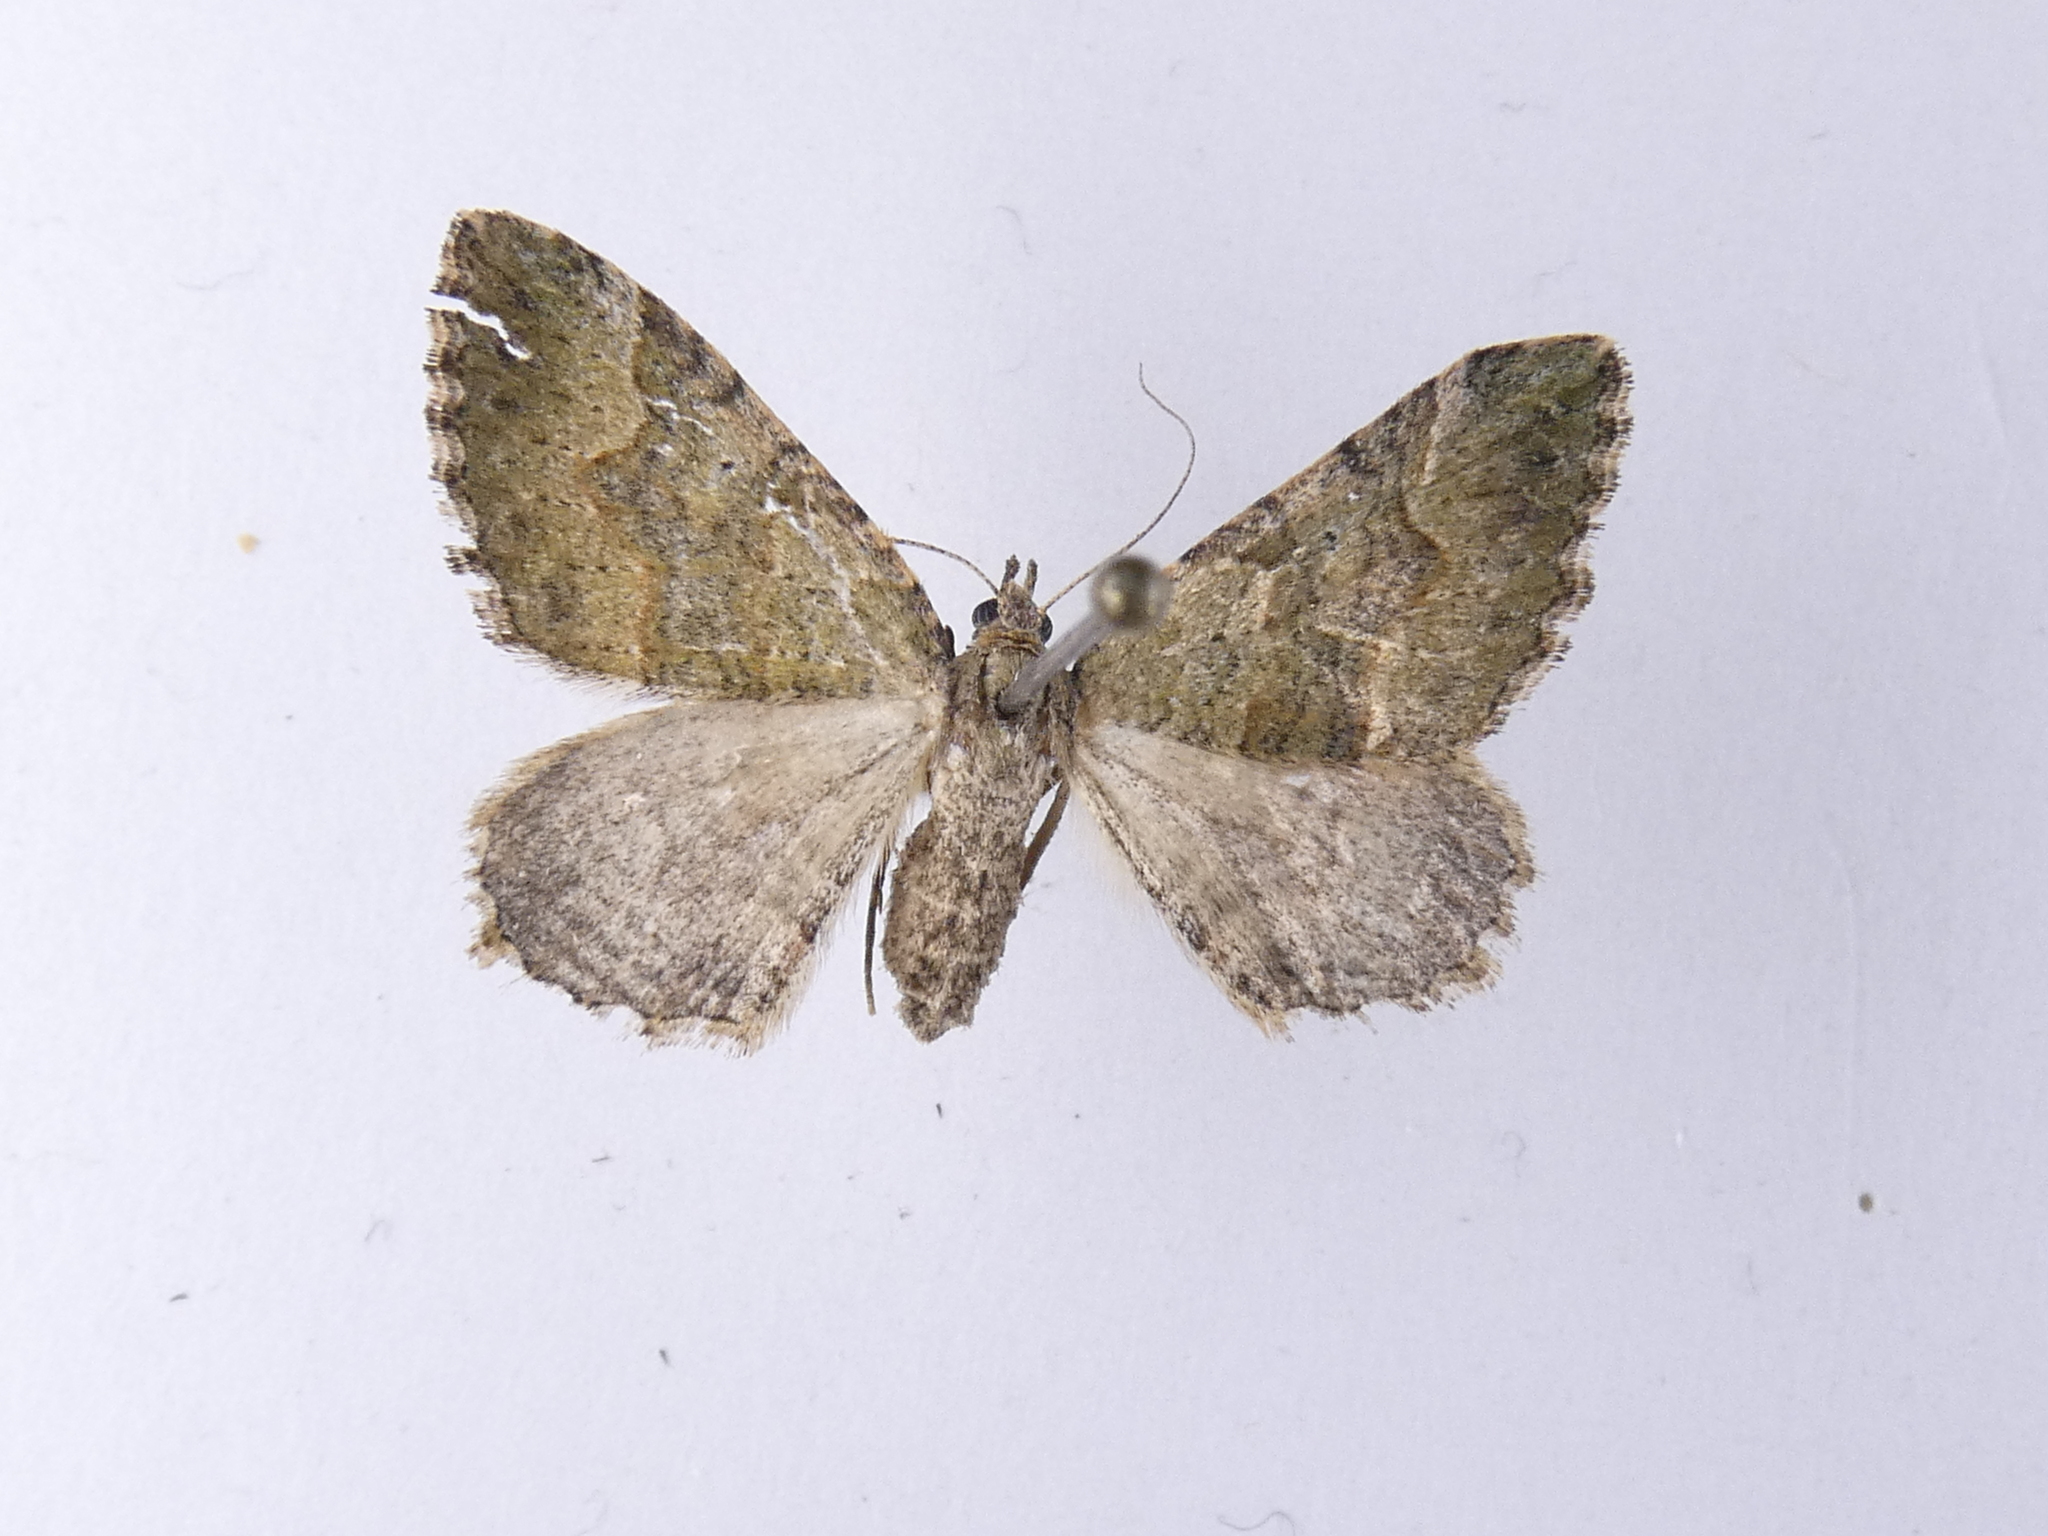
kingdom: Animalia
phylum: Arthropoda
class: Insecta
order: Lepidoptera
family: Geometridae
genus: Epyaxa
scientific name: Epyaxa rosearia
